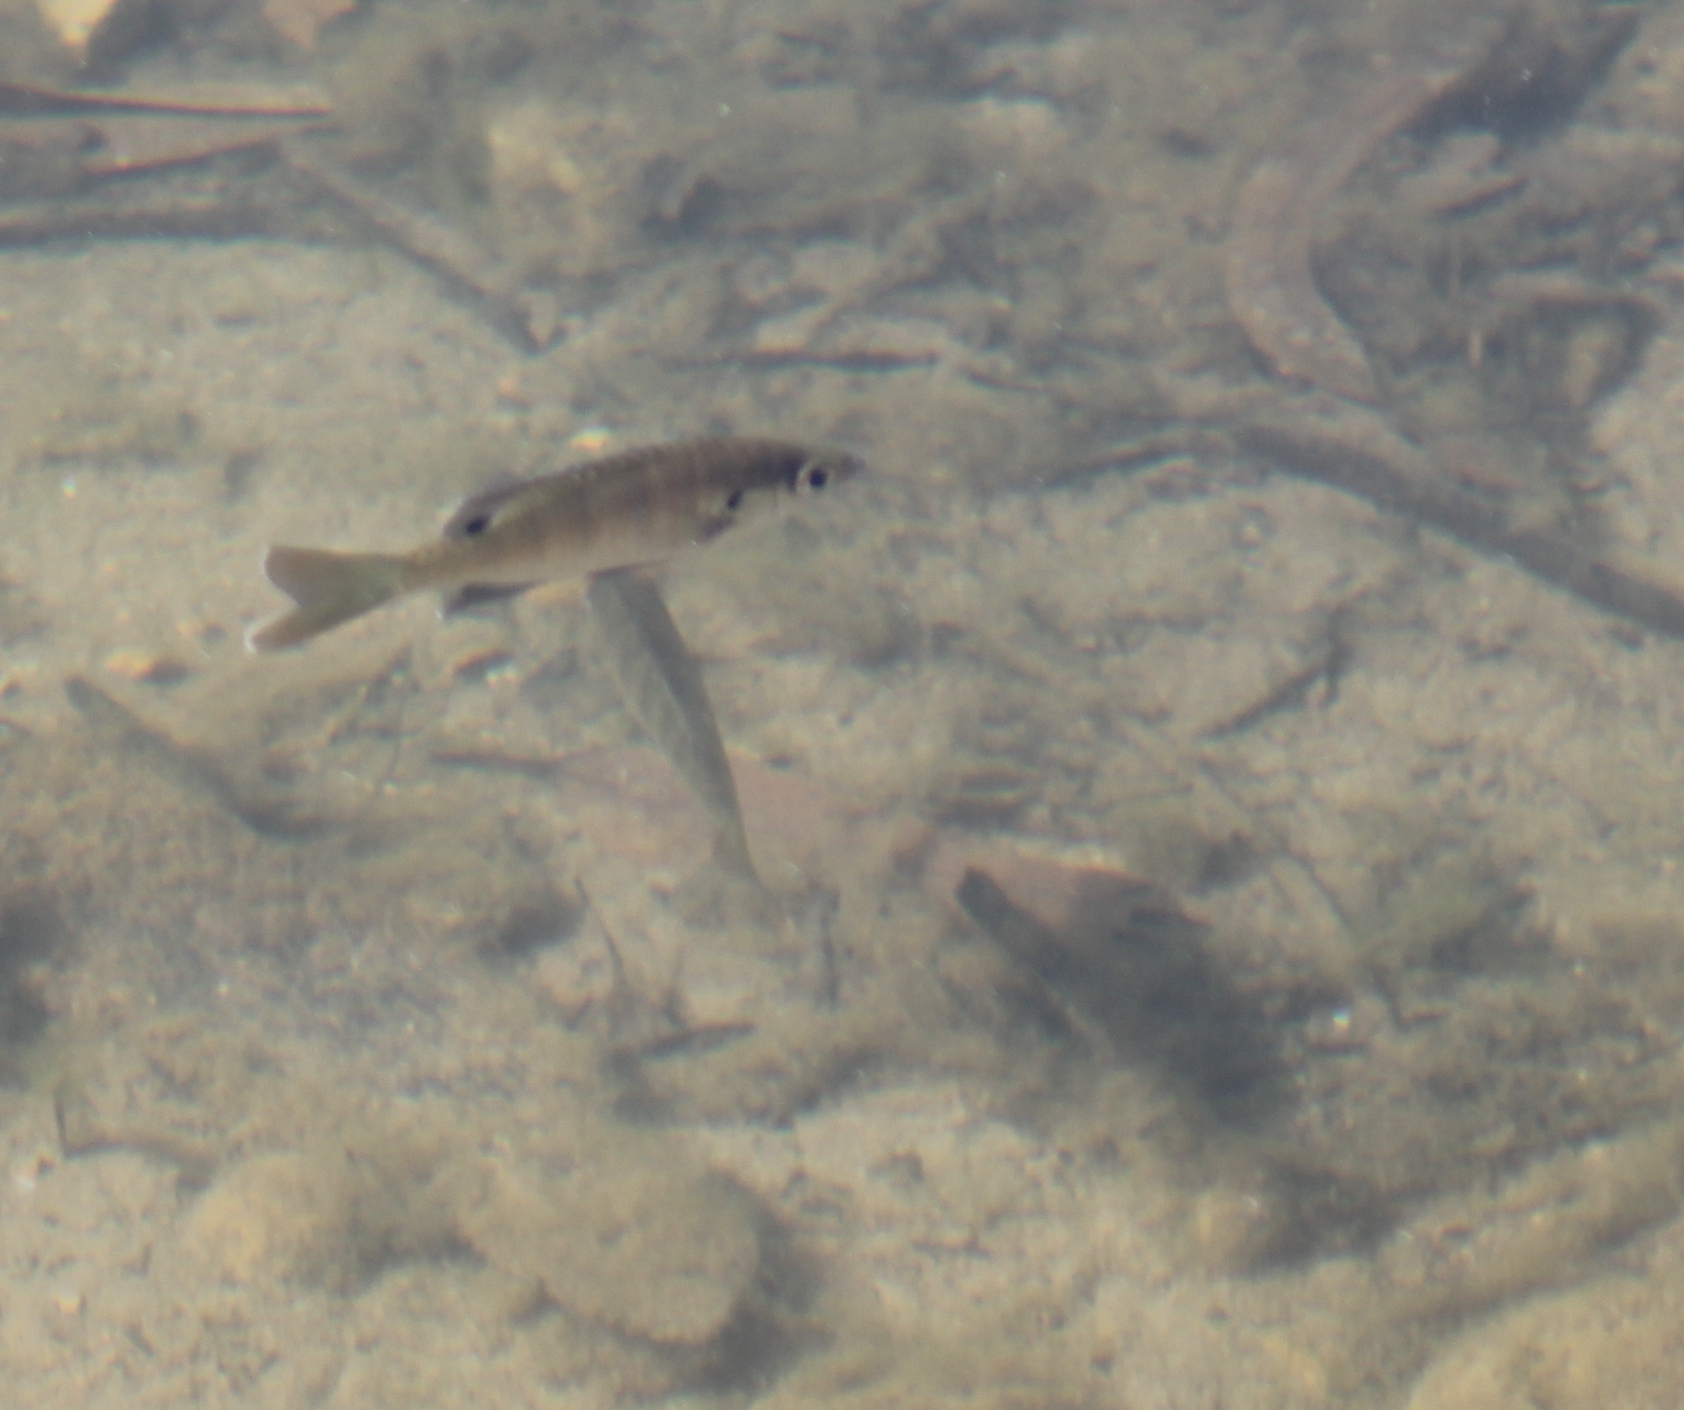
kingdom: Animalia
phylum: Chordata
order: Perciformes
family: Centrarchidae
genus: Lepomis
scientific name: Lepomis macrochirus
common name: Bluegill
